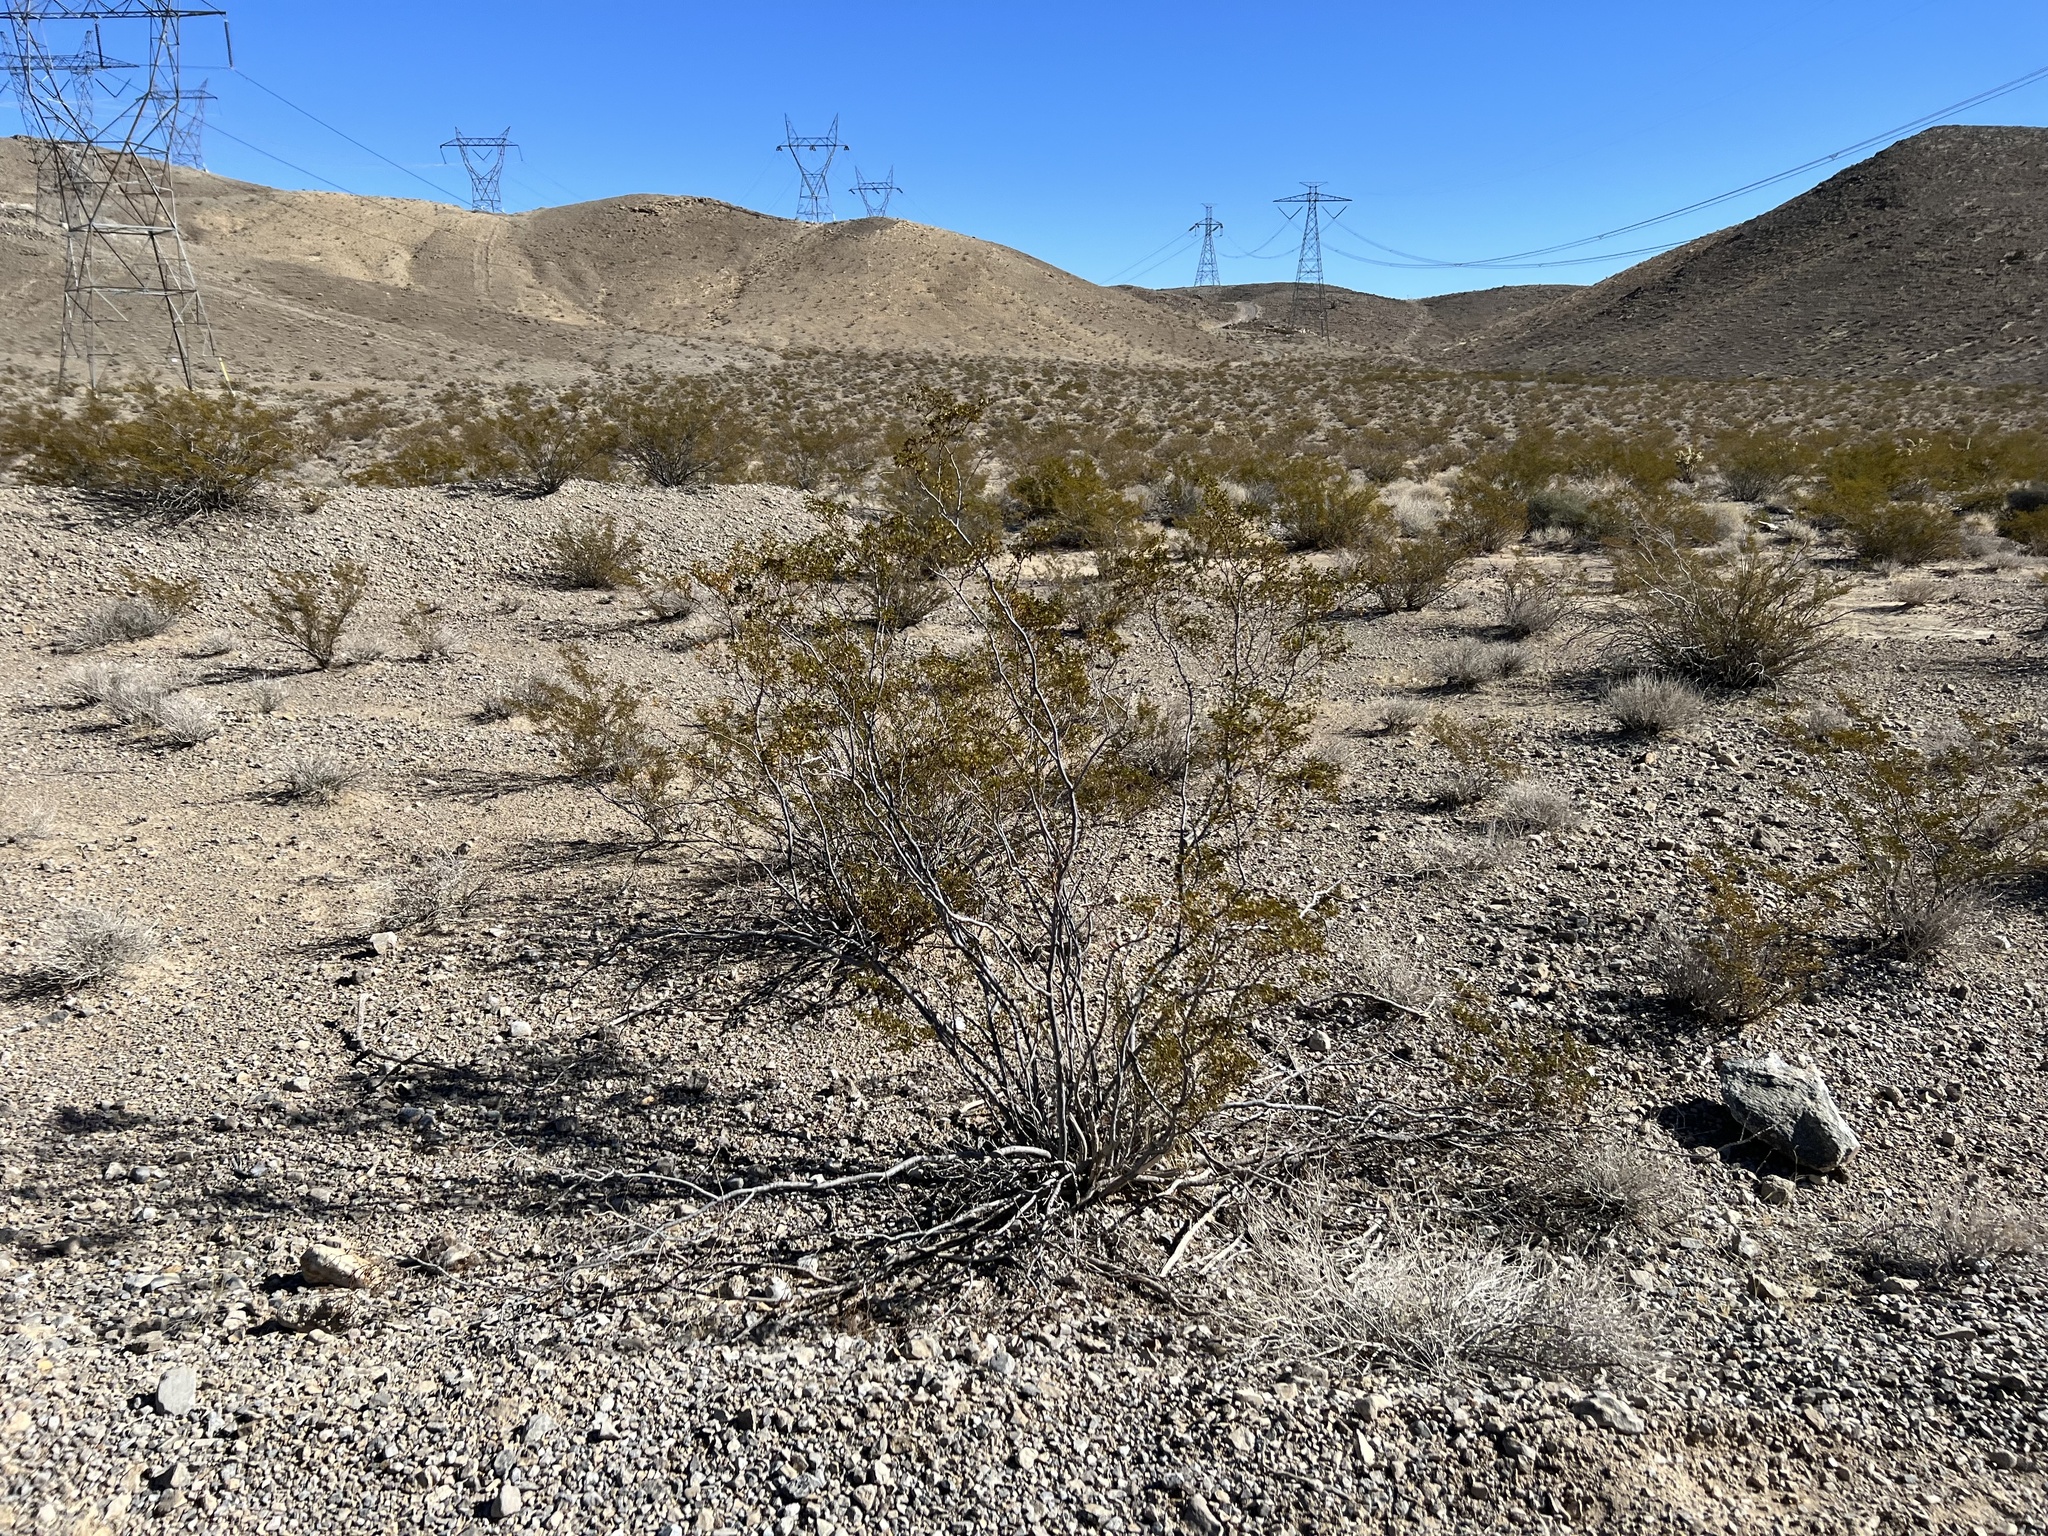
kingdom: Plantae
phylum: Tracheophyta
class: Magnoliopsida
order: Zygophyllales
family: Zygophyllaceae
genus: Larrea
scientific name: Larrea tridentata
